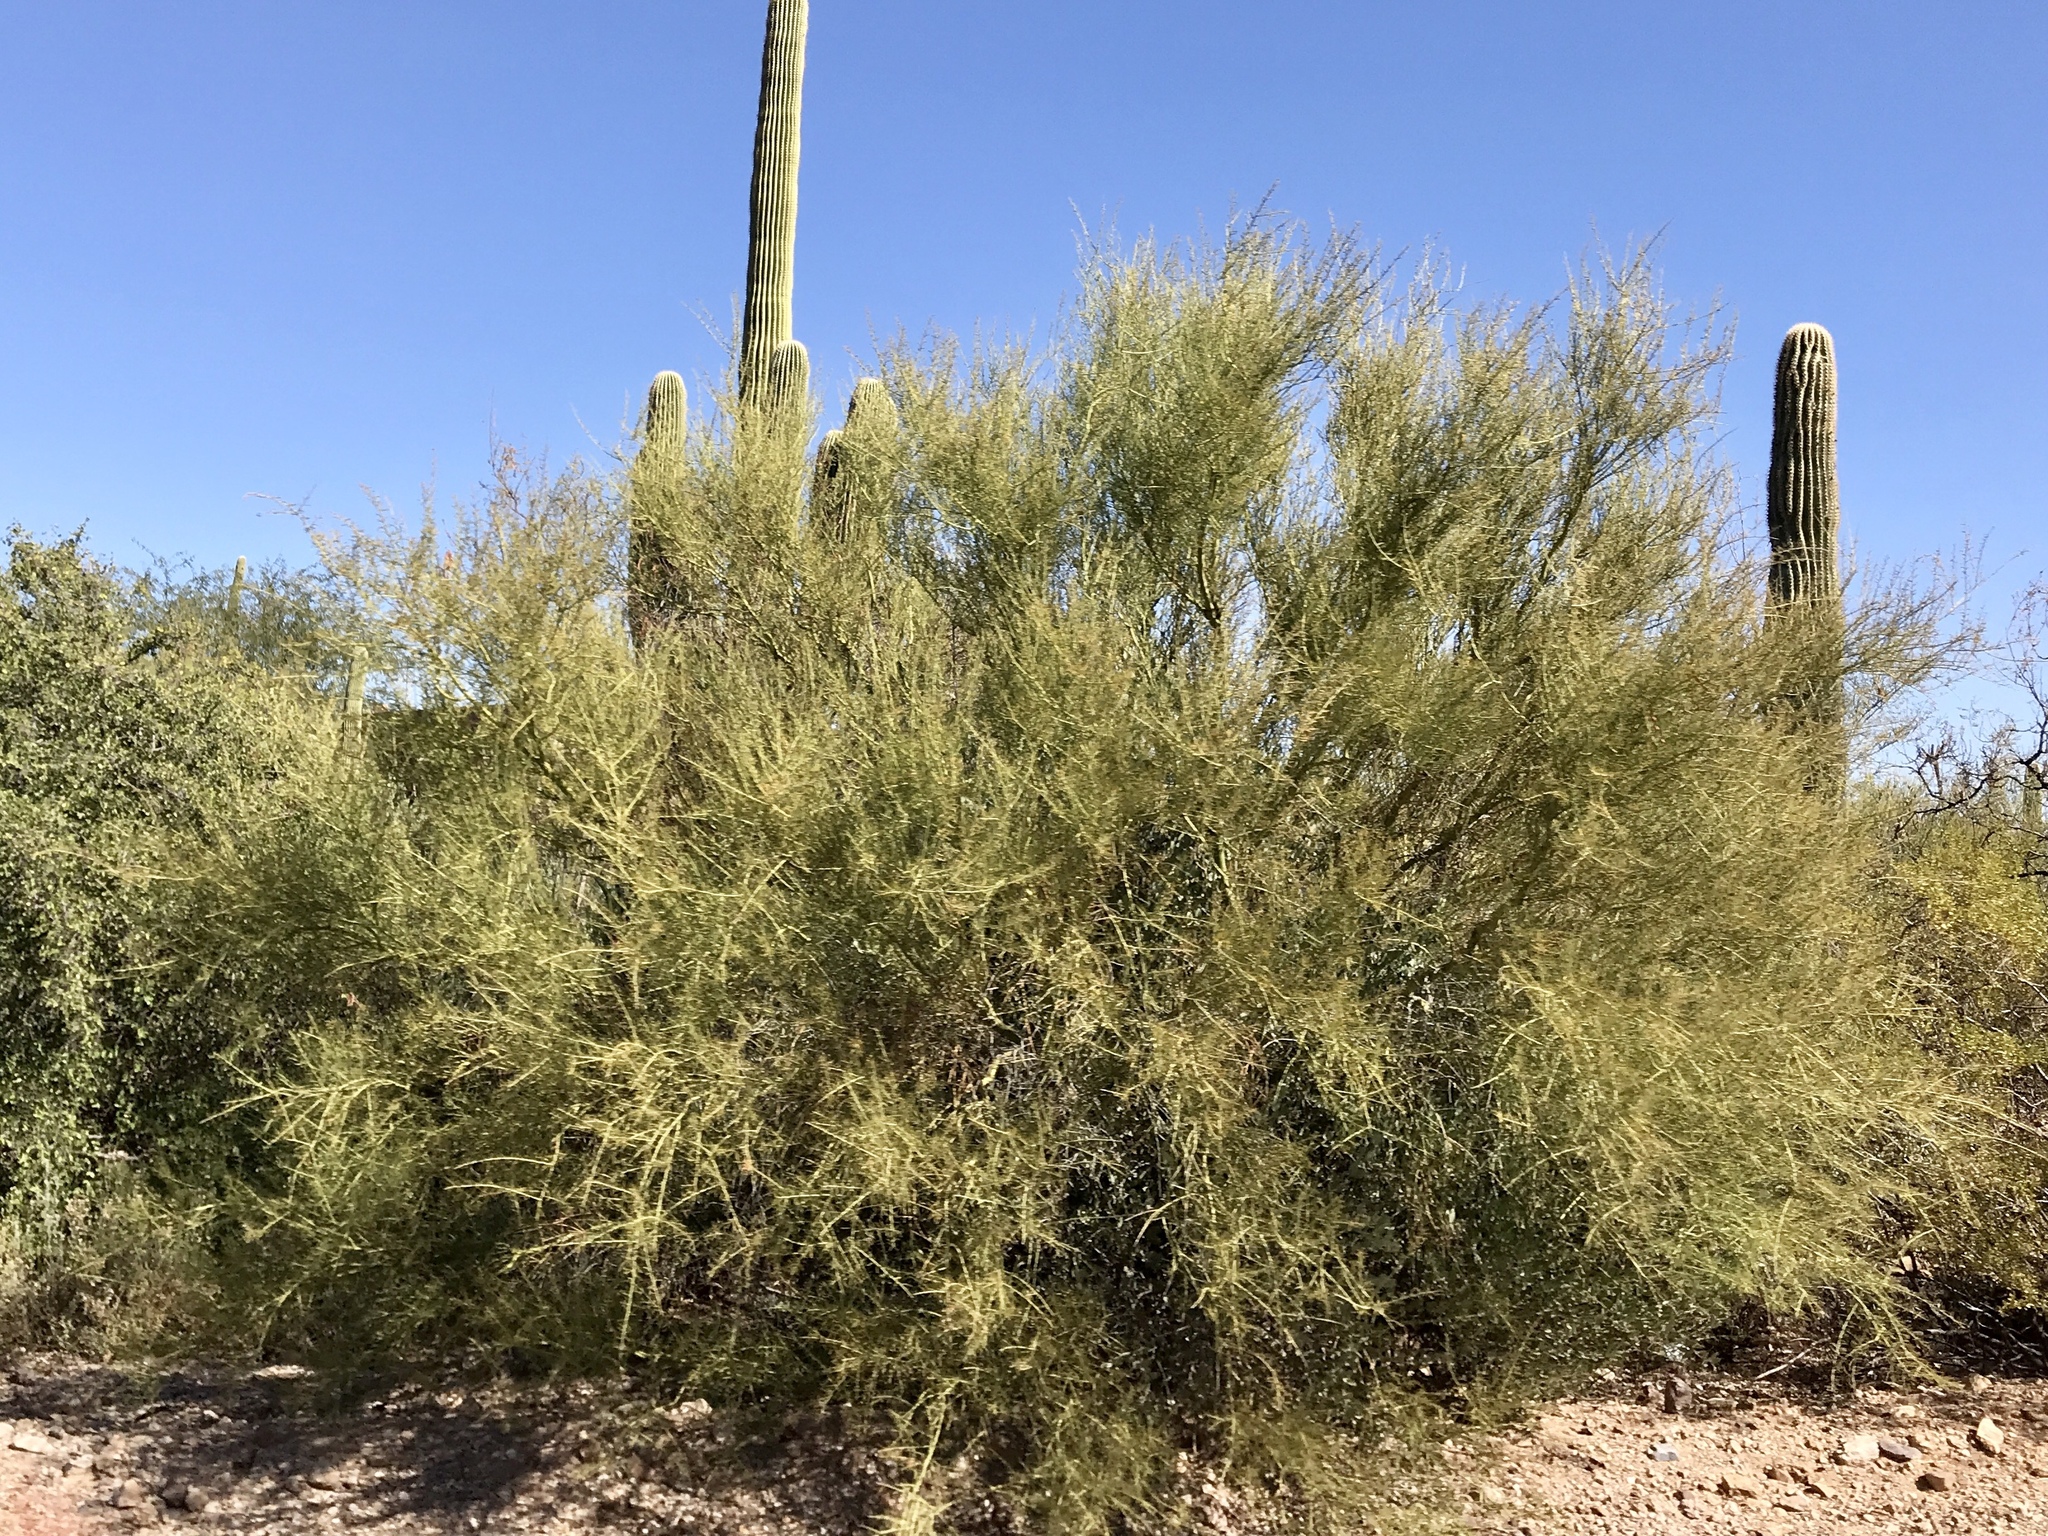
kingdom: Plantae
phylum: Tracheophyta
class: Magnoliopsida
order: Fabales
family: Fabaceae
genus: Parkinsonia
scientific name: Parkinsonia microphylla
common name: Yellow paloverde
